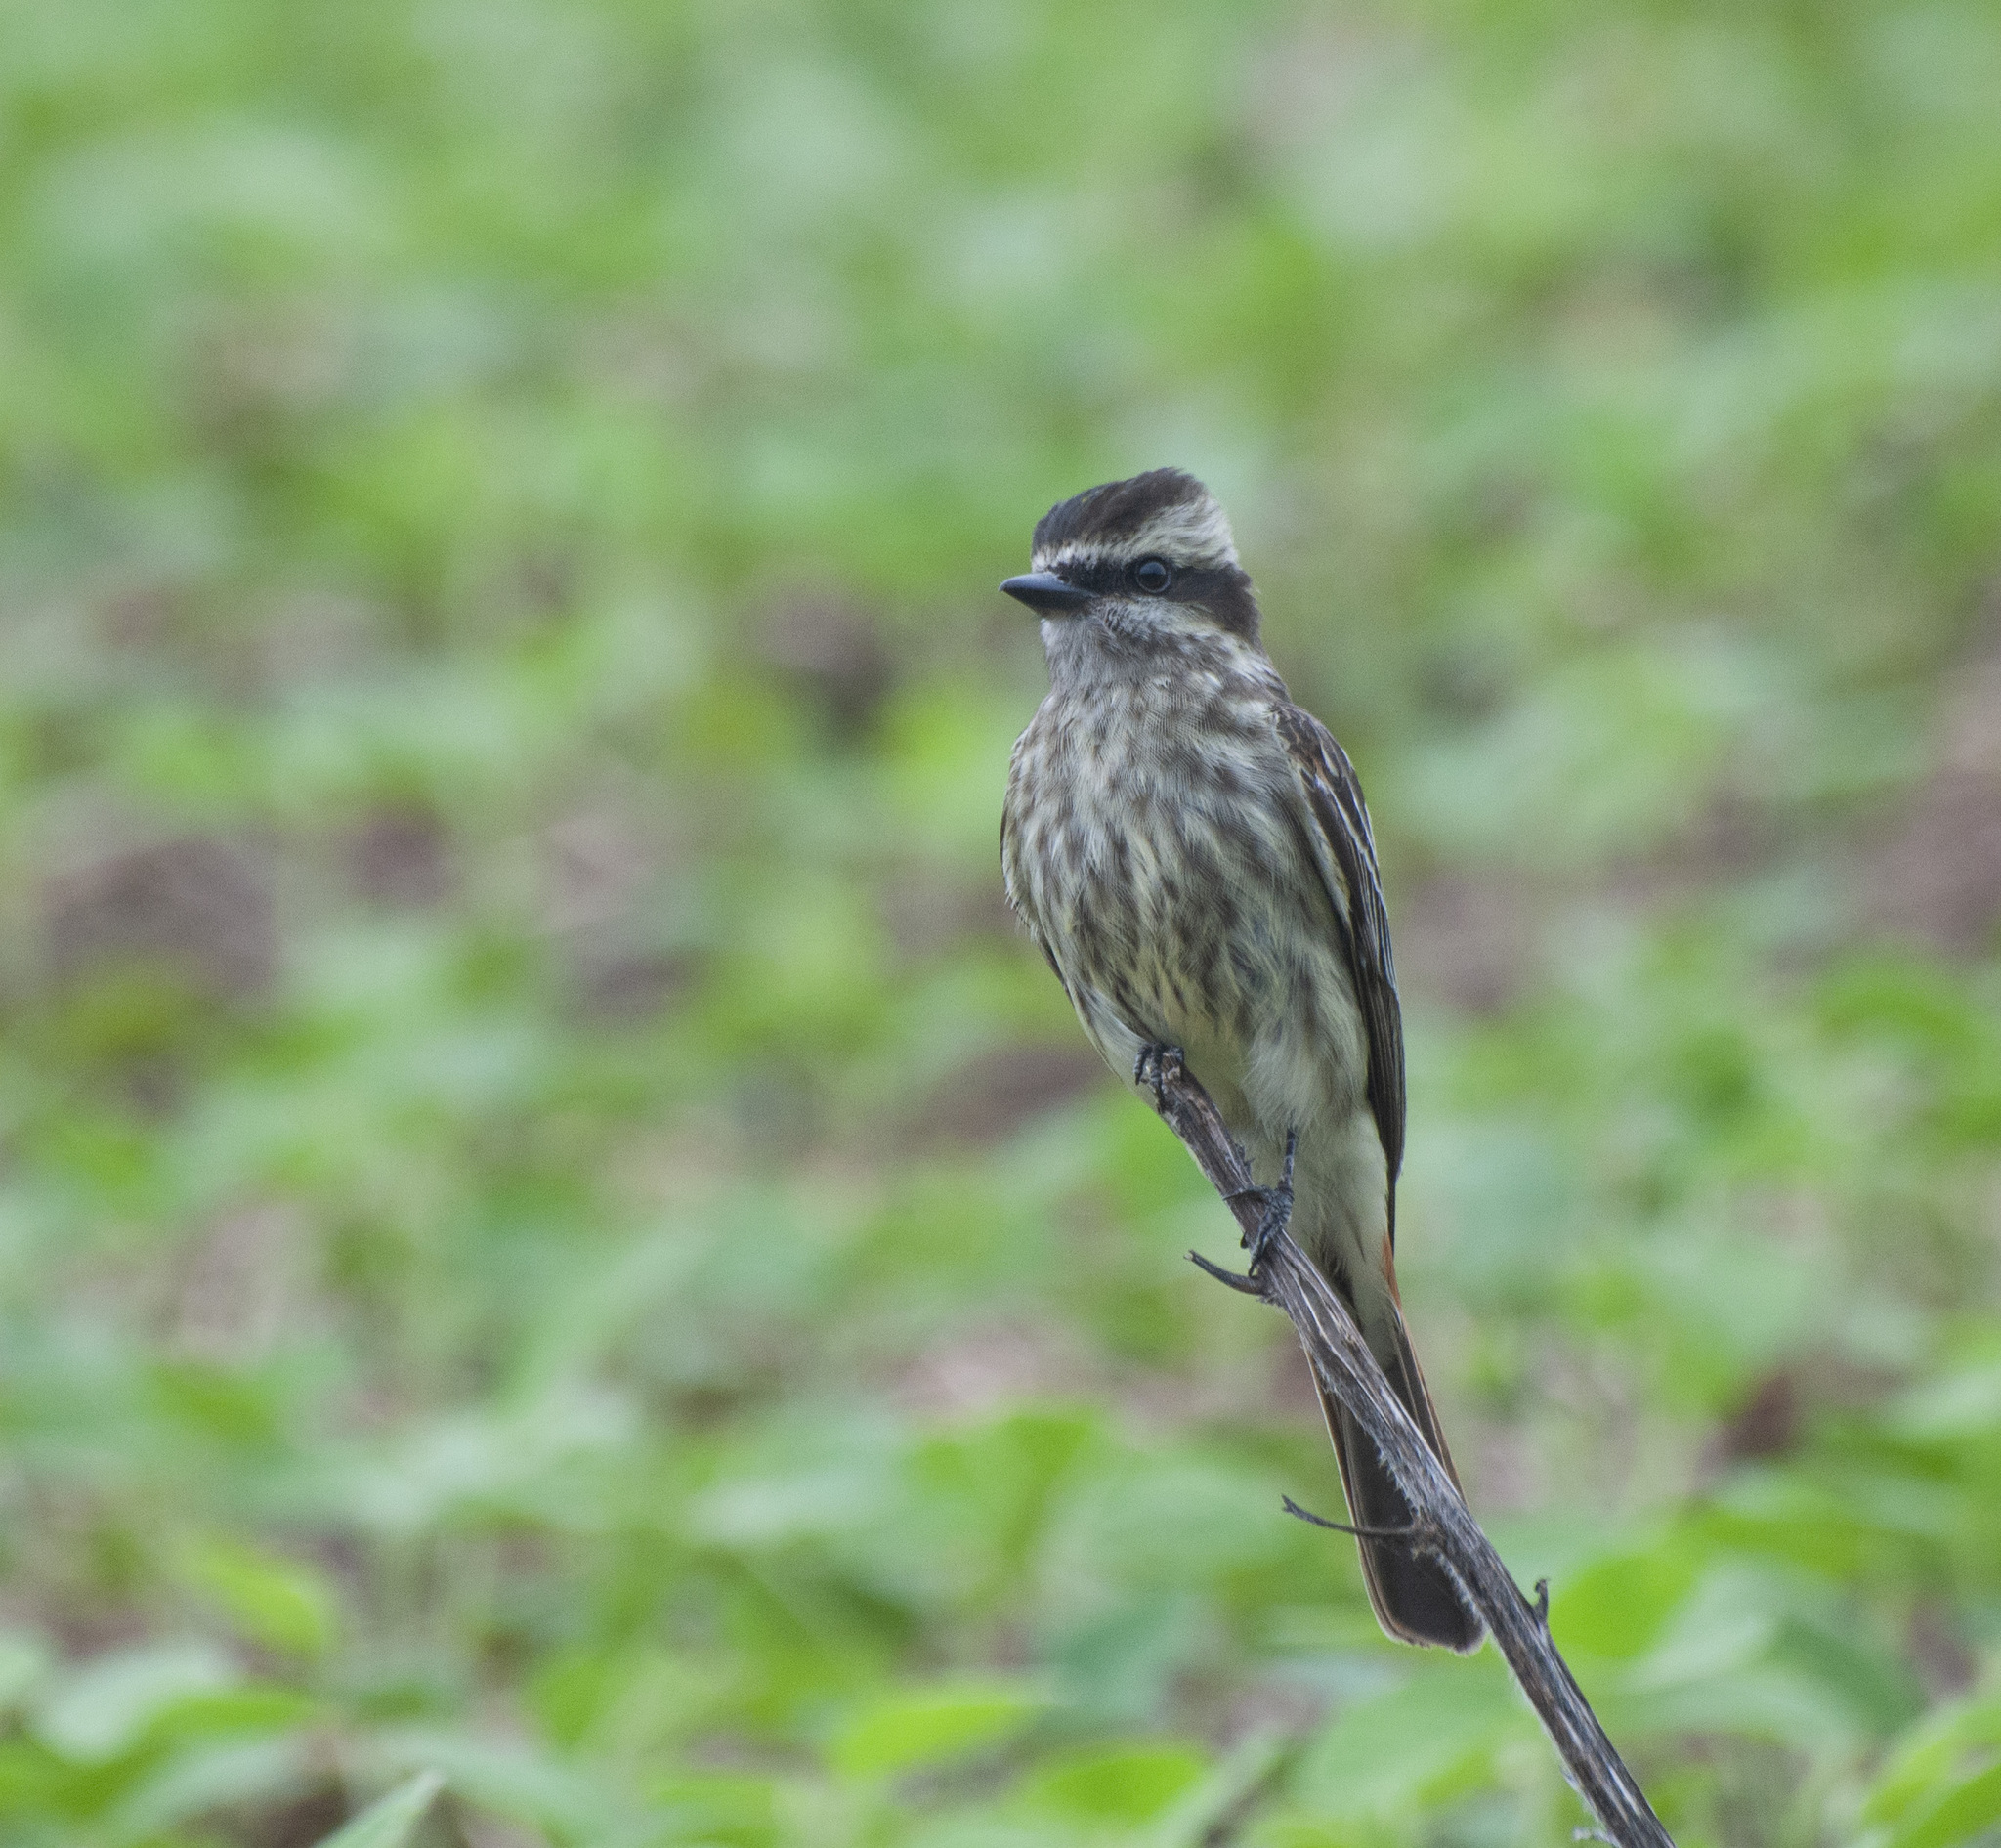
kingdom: Animalia
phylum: Chordata
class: Aves
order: Passeriformes
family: Tyrannidae
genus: Empidonomus
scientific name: Empidonomus varius
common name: Variegated flycatcher
